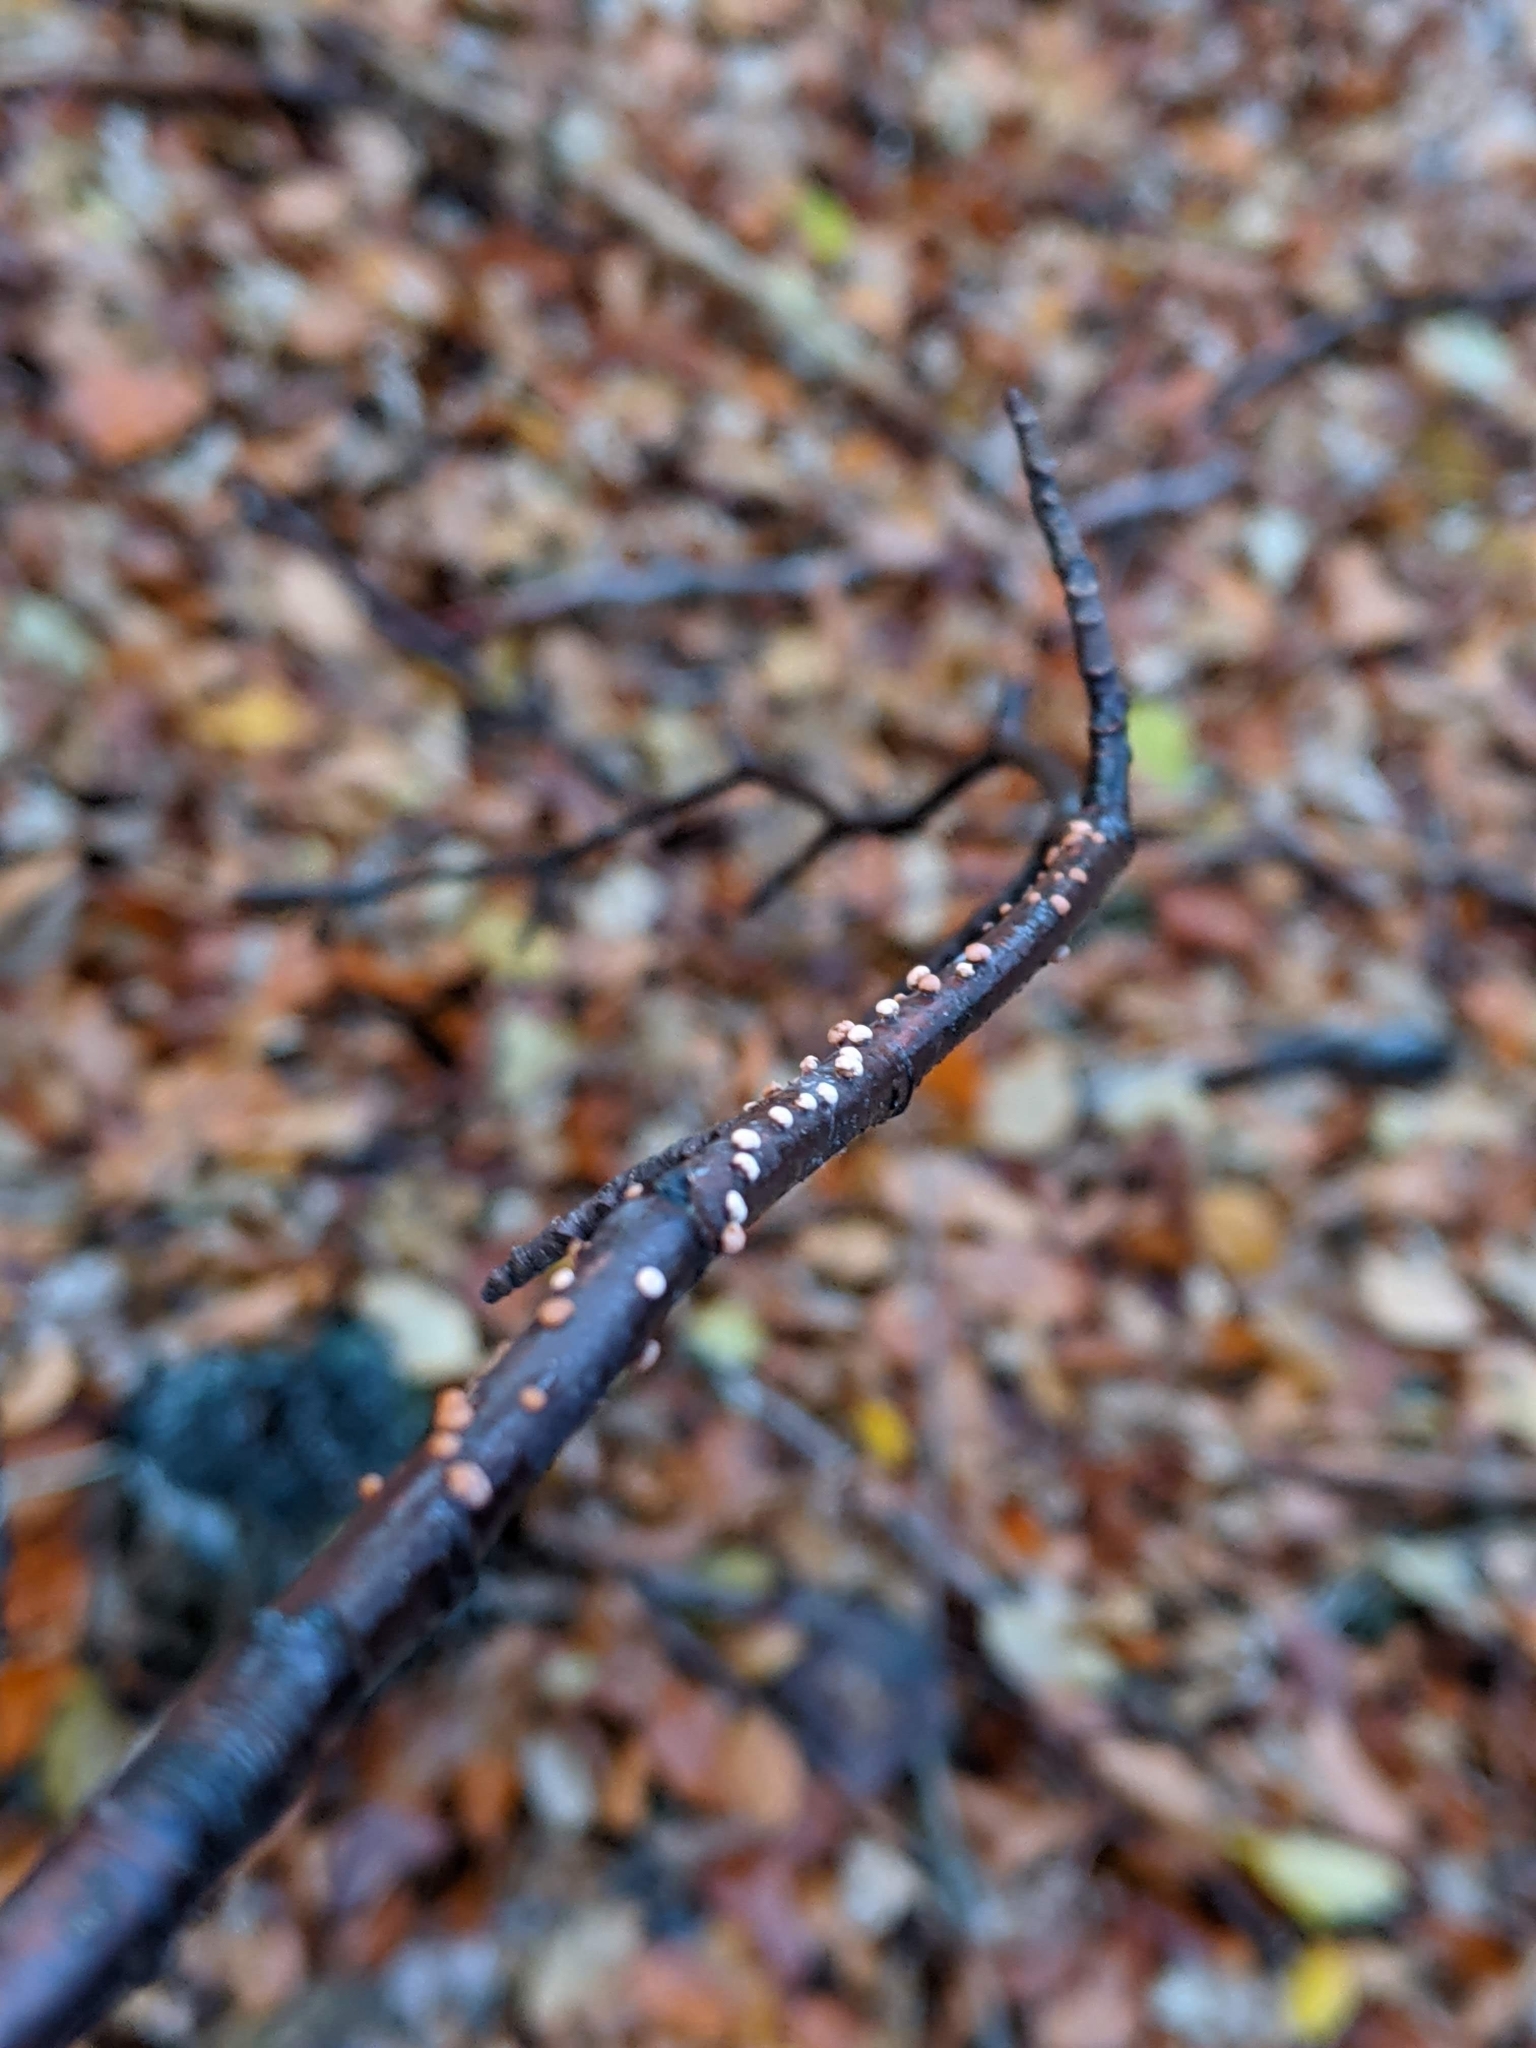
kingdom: Fungi
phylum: Ascomycota
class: Sordariomycetes
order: Hypocreales
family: Nectriaceae
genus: Nectria
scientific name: Nectria cinnabarina
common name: Coral spot
